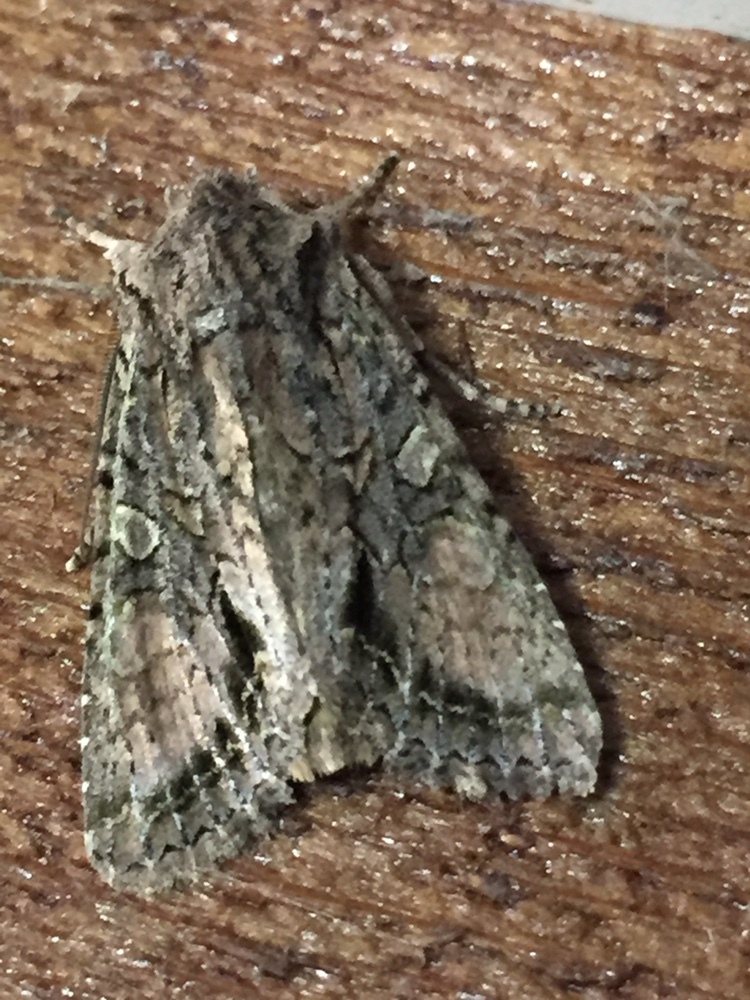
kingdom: Animalia
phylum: Arthropoda
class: Insecta
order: Lepidoptera
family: Noctuidae
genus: Ichneutica
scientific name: Ichneutica mutans
